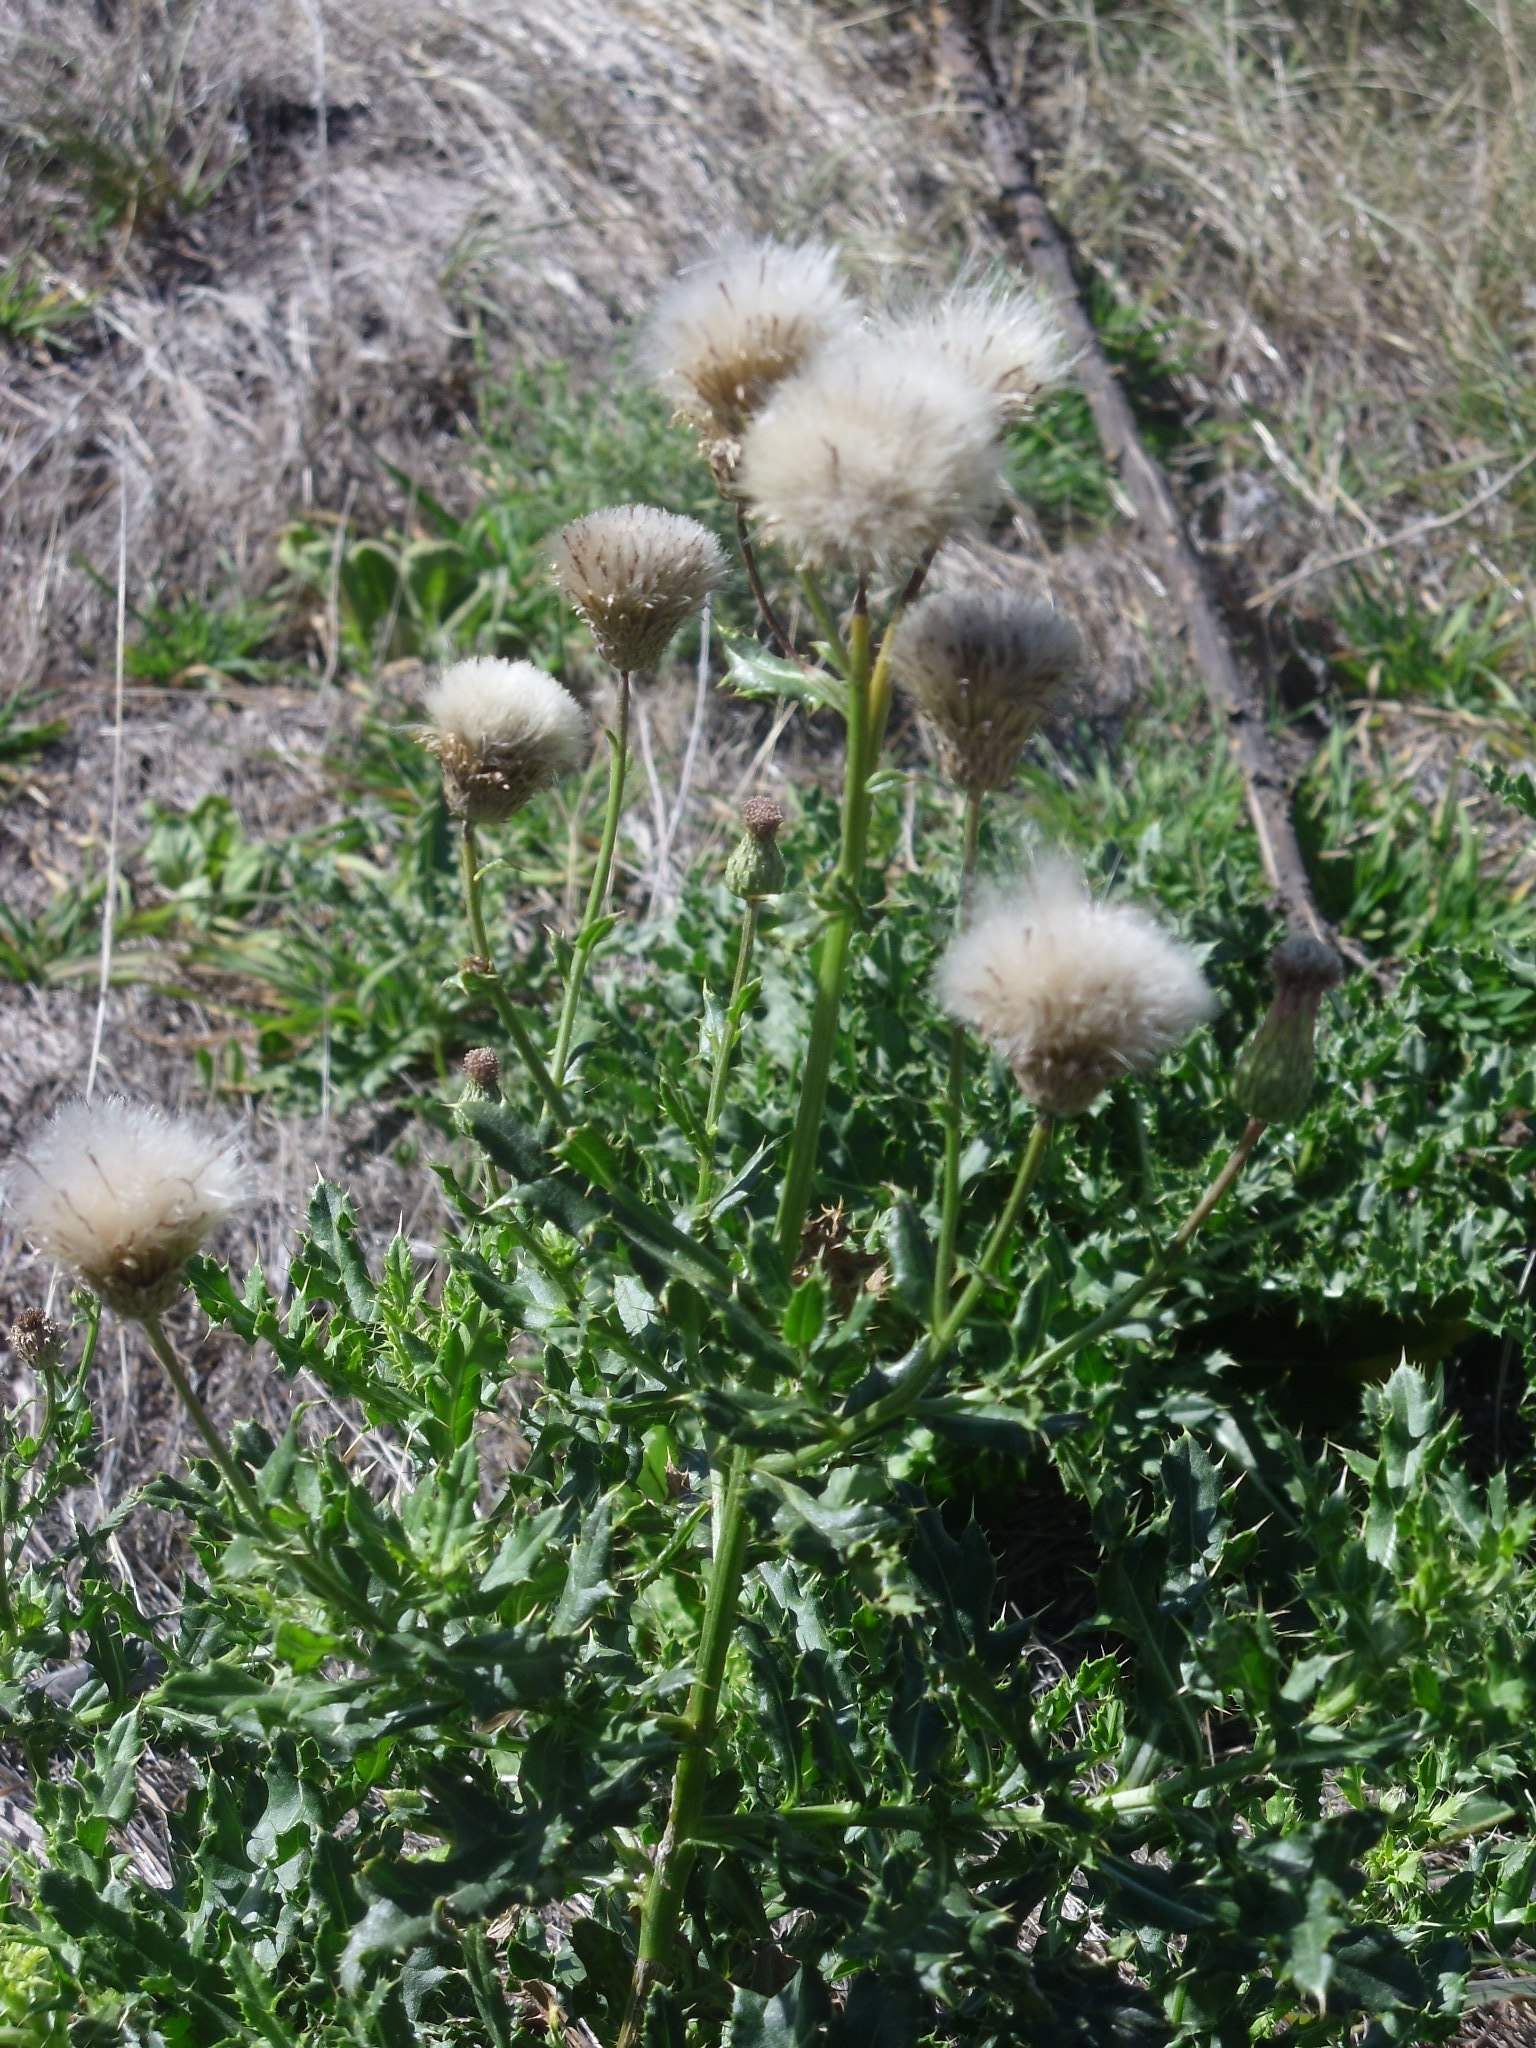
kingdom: Plantae
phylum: Tracheophyta
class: Magnoliopsida
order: Asterales
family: Asteraceae
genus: Cirsium
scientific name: Cirsium arvense
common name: Creeping thistle
